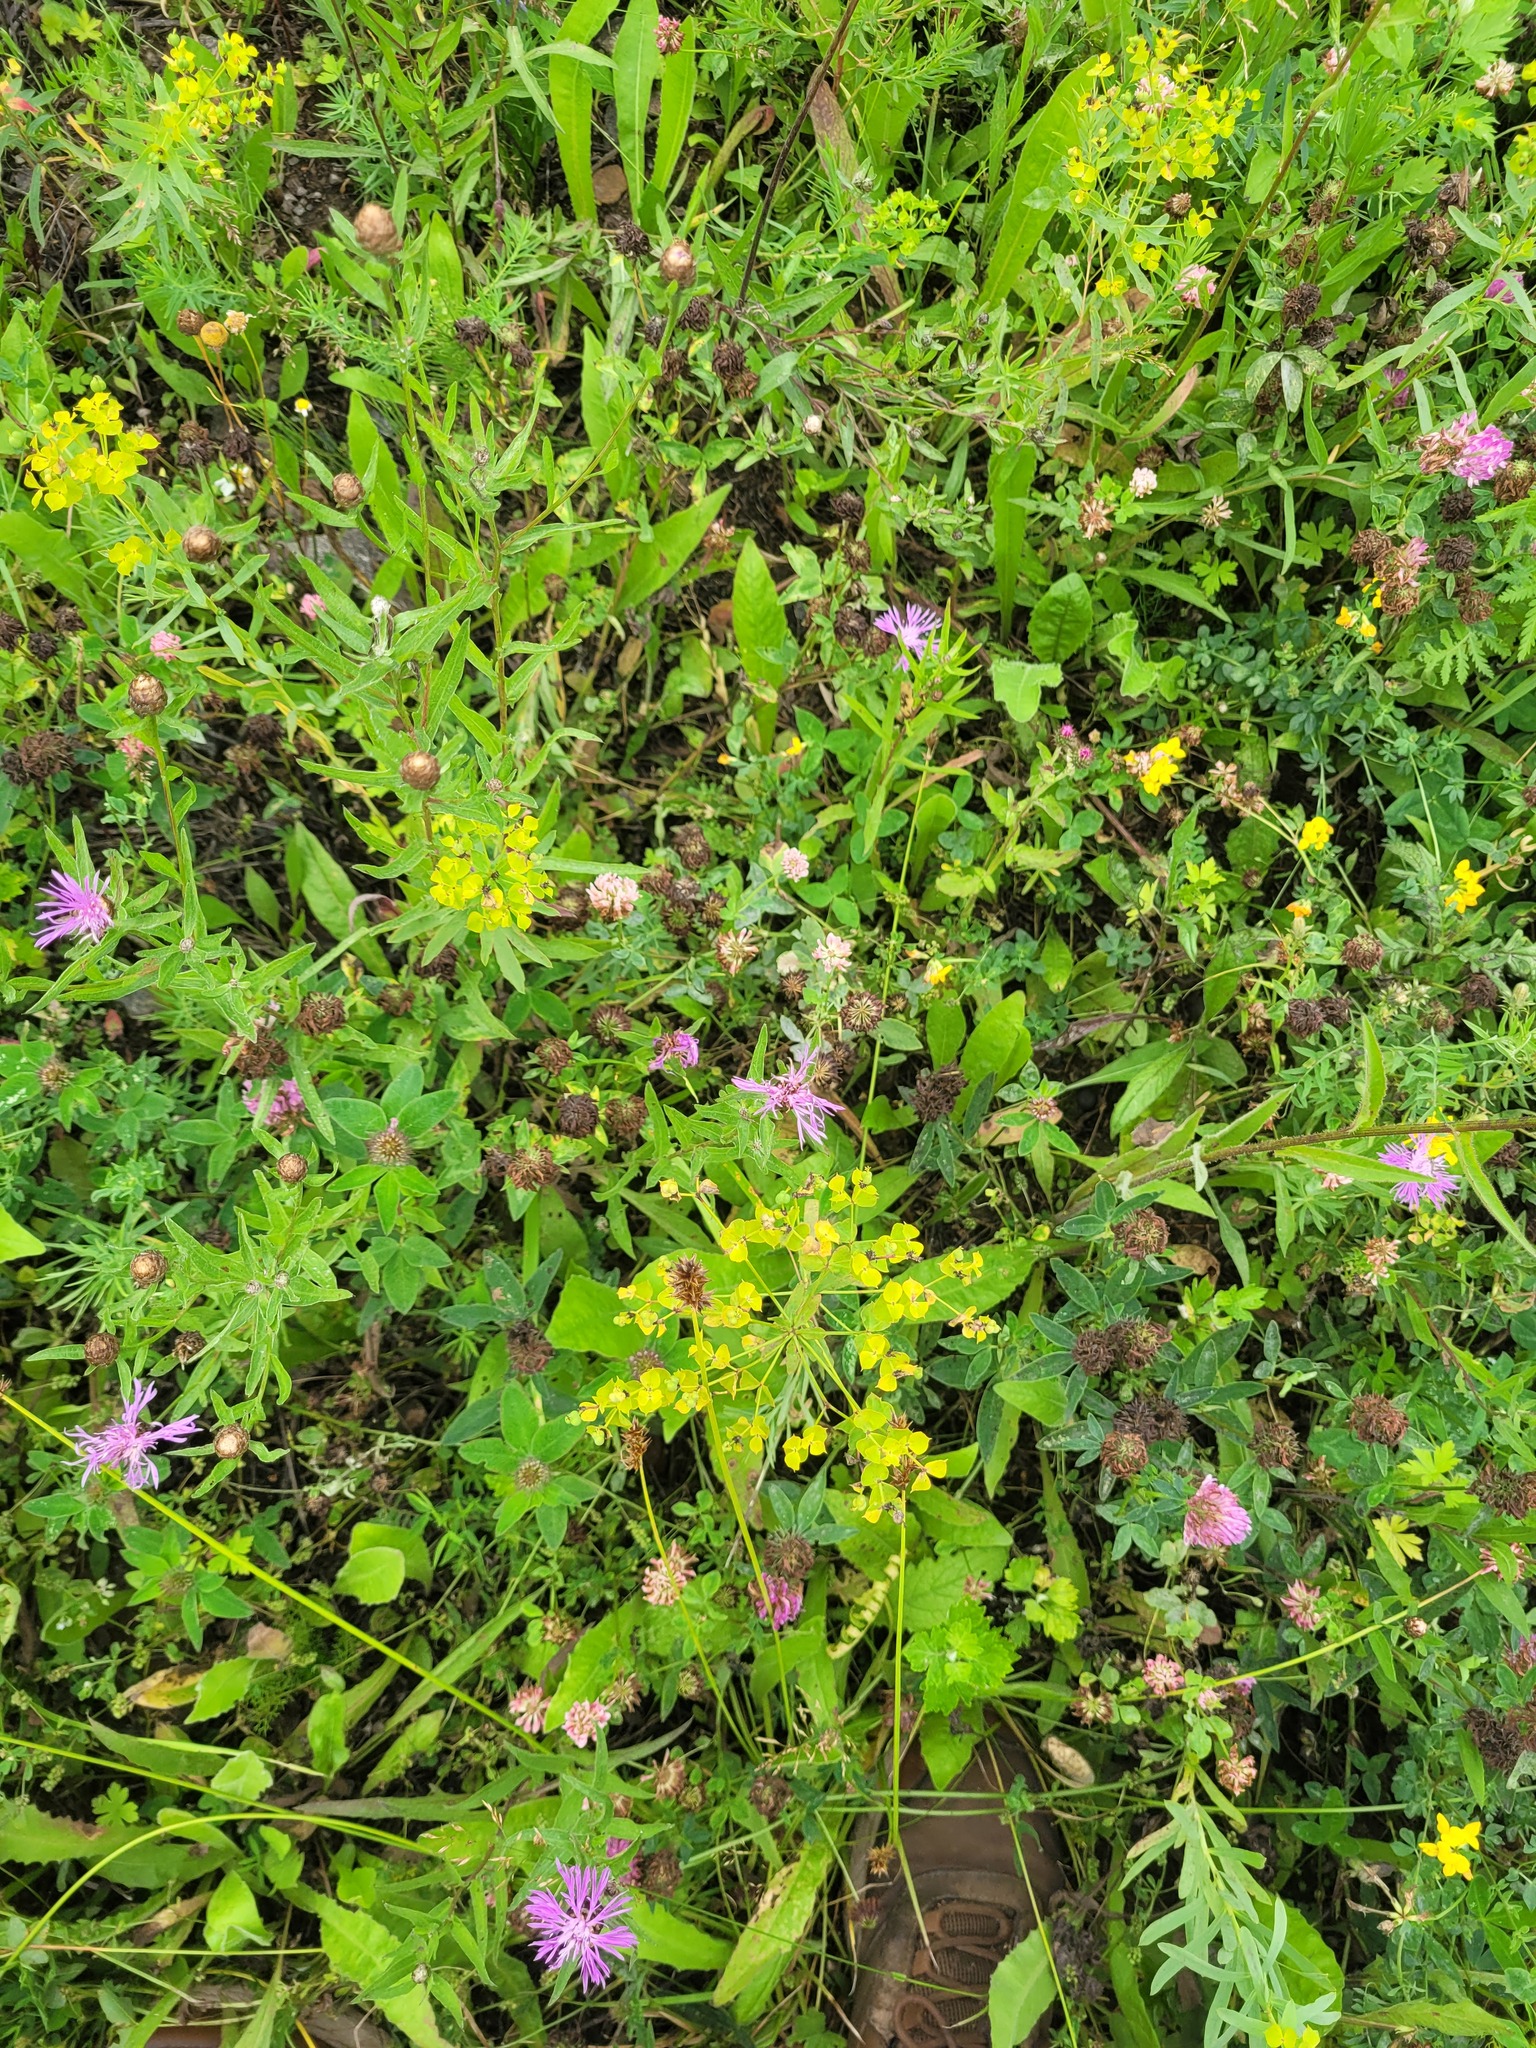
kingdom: Plantae
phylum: Tracheophyta
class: Magnoliopsida
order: Malpighiales
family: Euphorbiaceae
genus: Euphorbia
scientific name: Euphorbia virgata
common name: Leafy spurge
